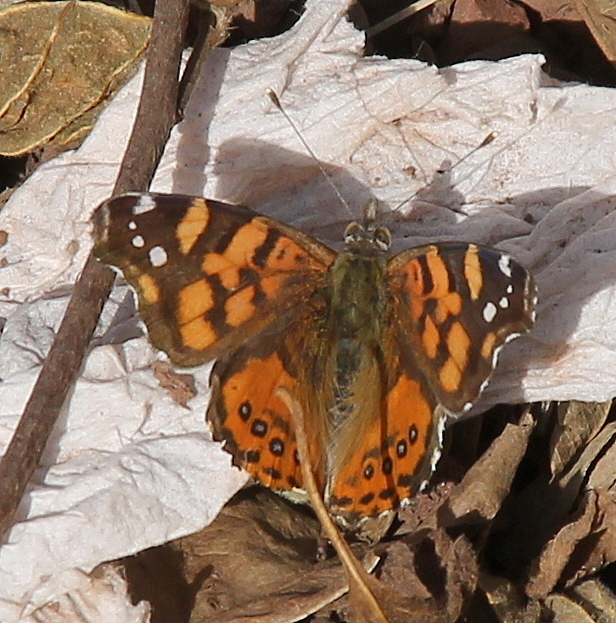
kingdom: Animalia
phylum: Arthropoda
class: Insecta
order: Lepidoptera
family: Nymphalidae
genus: Vanessa
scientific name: Vanessa carye
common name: Subtropical lady
